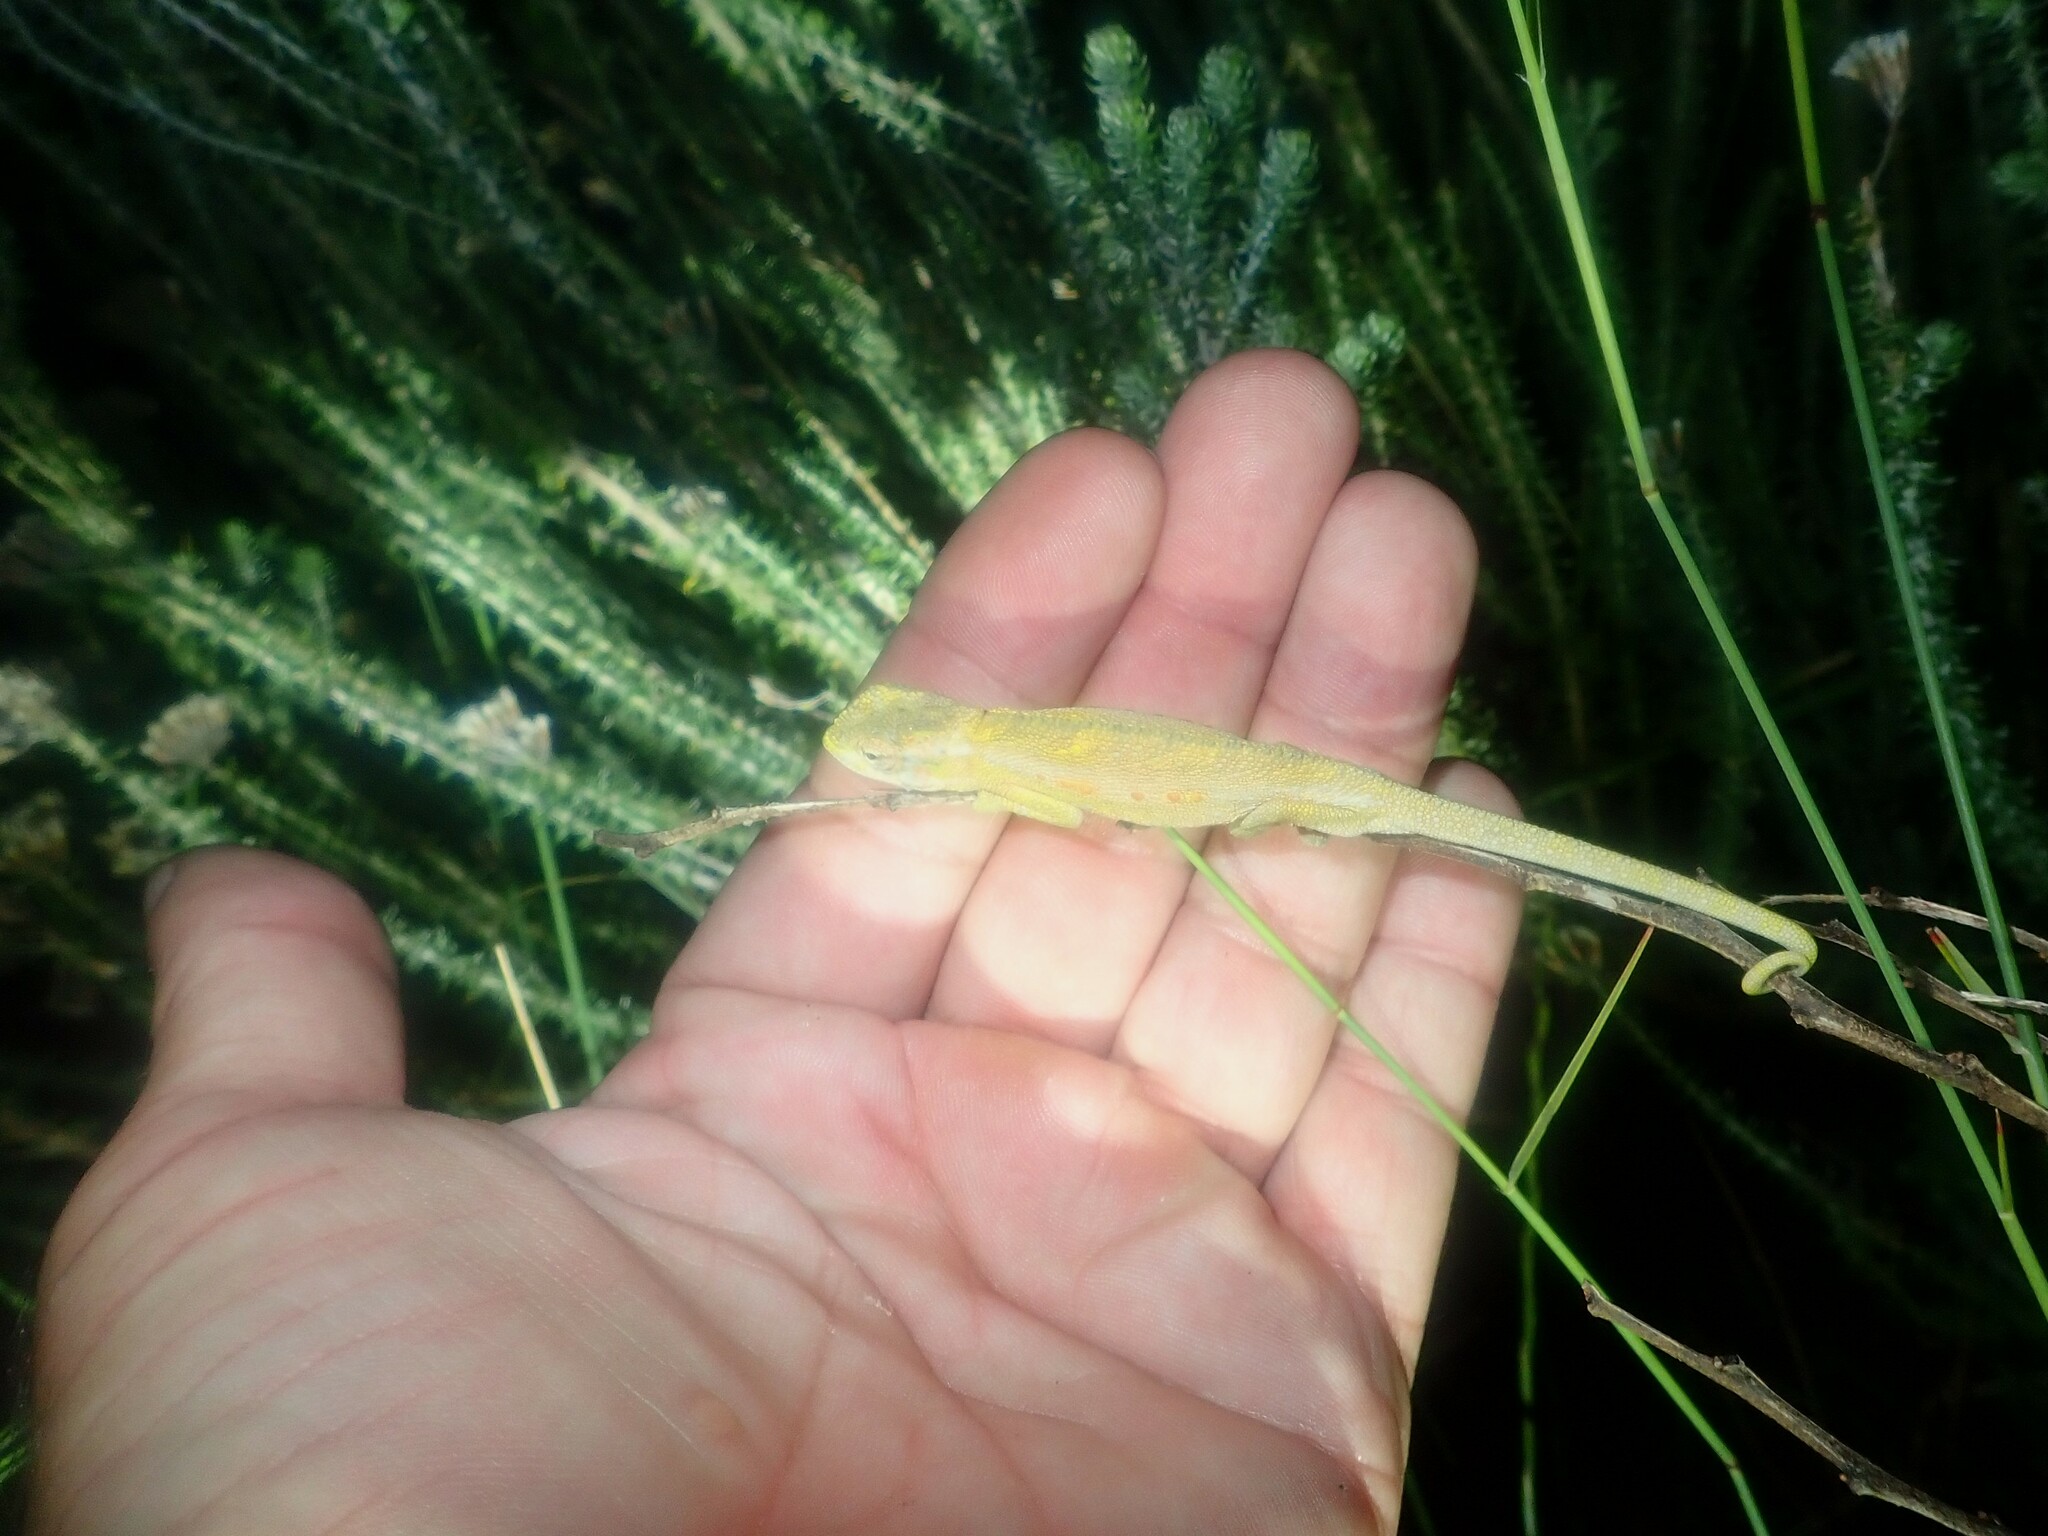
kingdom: Animalia
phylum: Chordata
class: Squamata
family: Chamaeleonidae
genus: Bradypodion
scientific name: Bradypodion pumilum
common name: Cape dwarf chameleon
